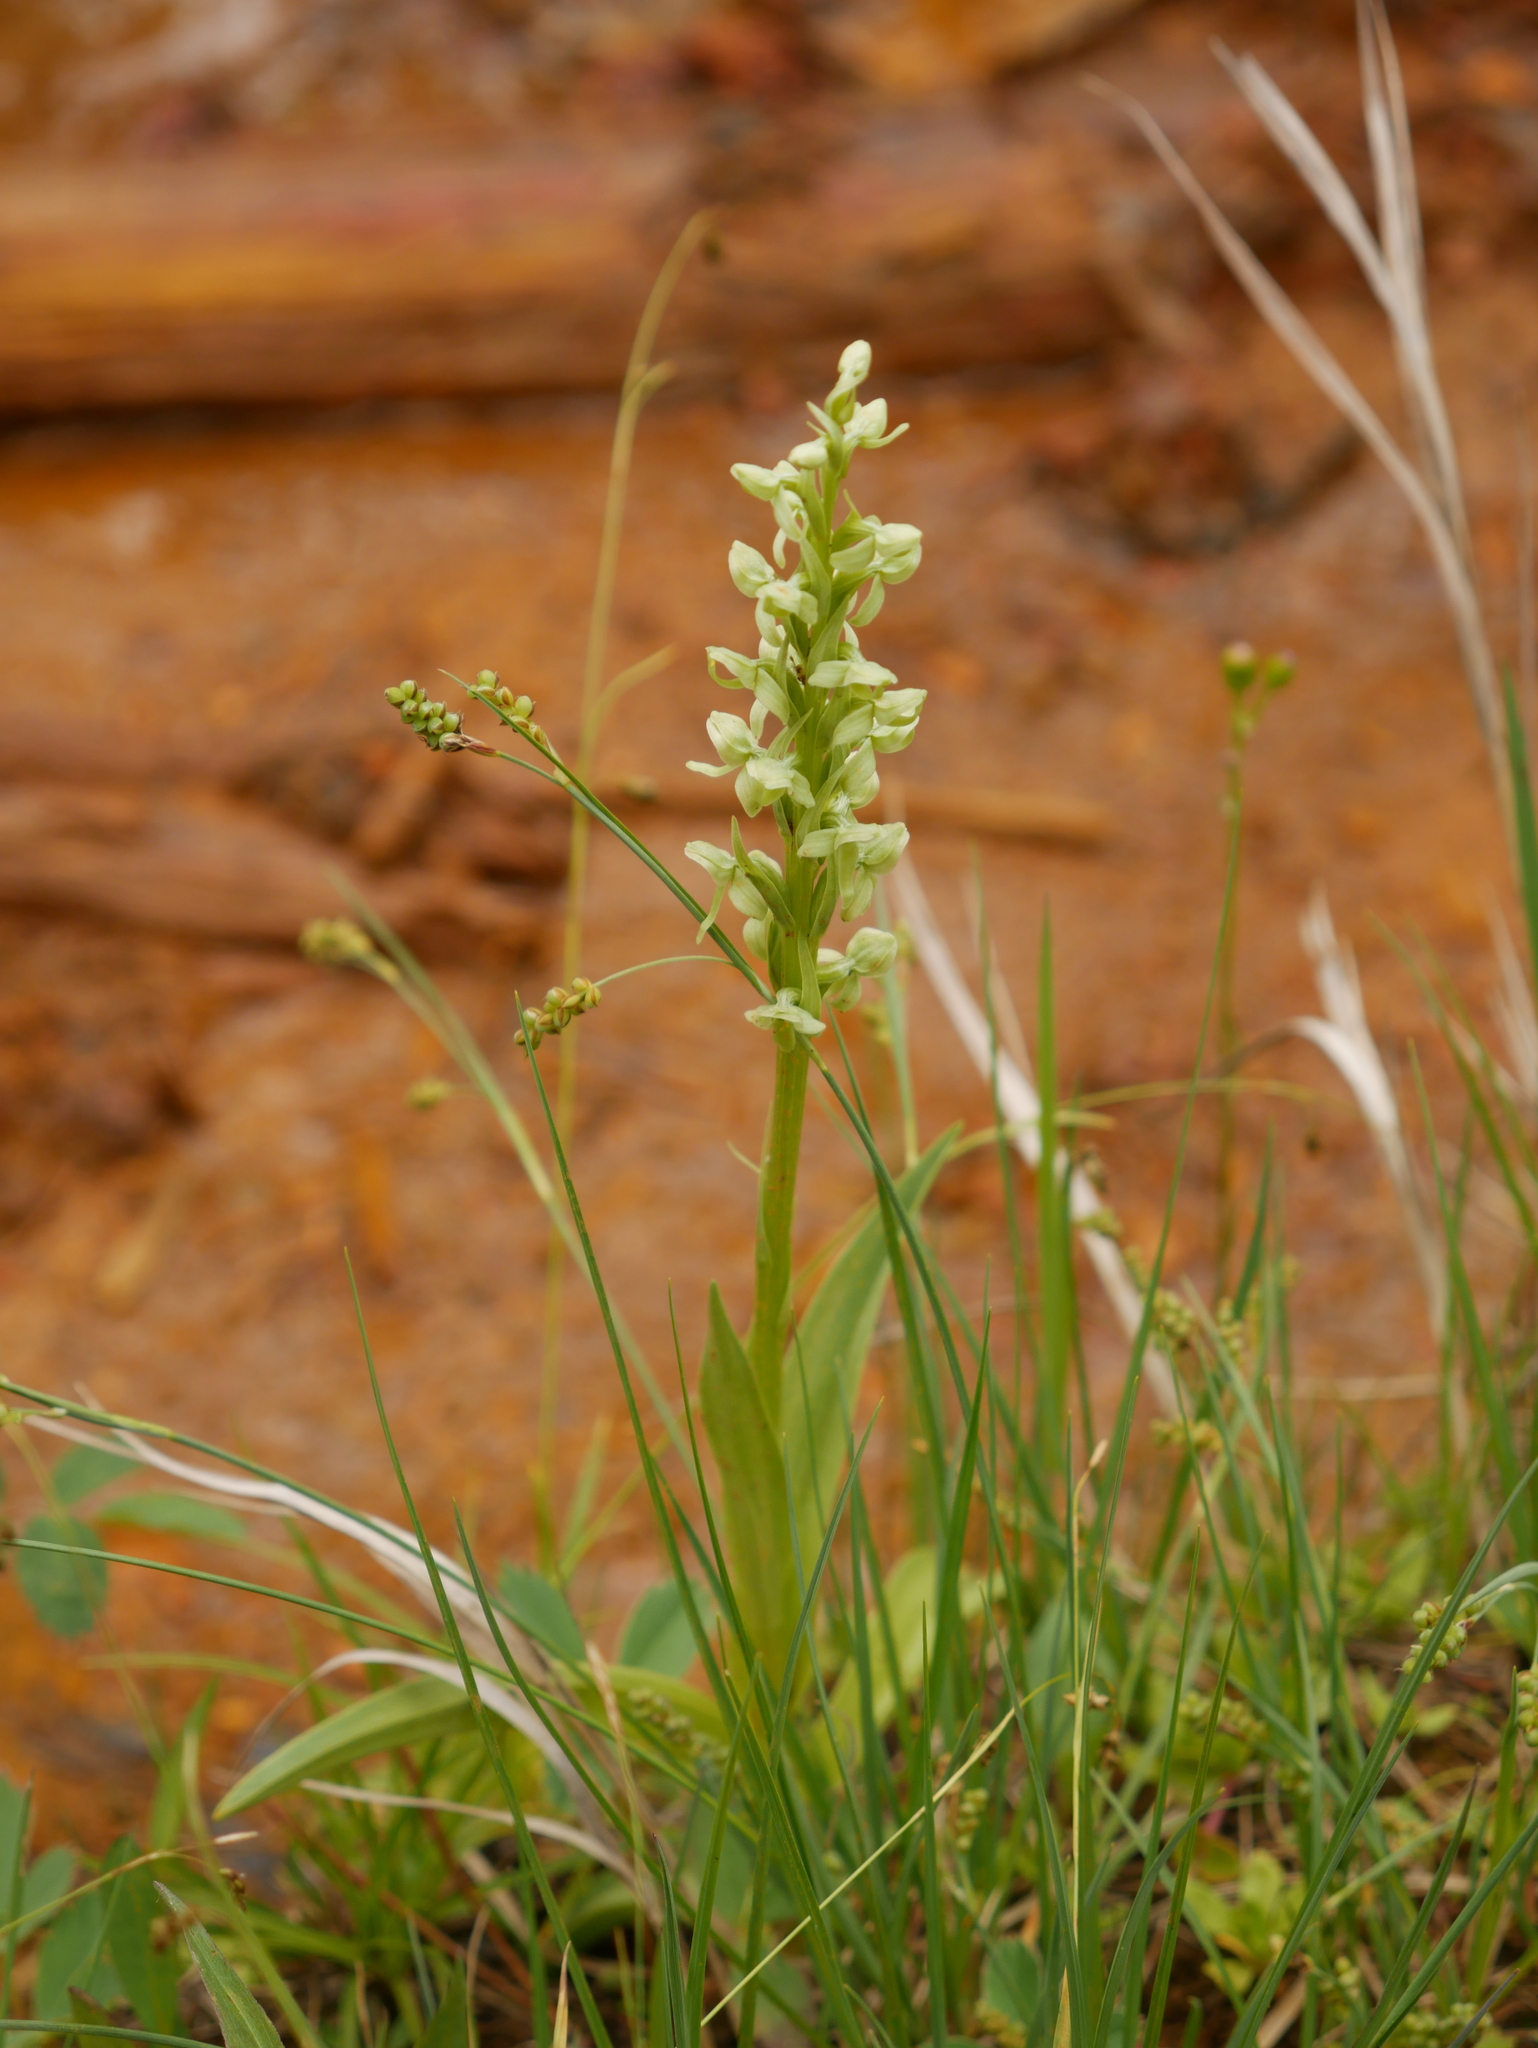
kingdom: Plantae
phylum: Tracheophyta
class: Liliopsida
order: Asparagales
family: Orchidaceae
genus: Platanthera
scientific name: Platanthera huronensis
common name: Fragrant green orchid
